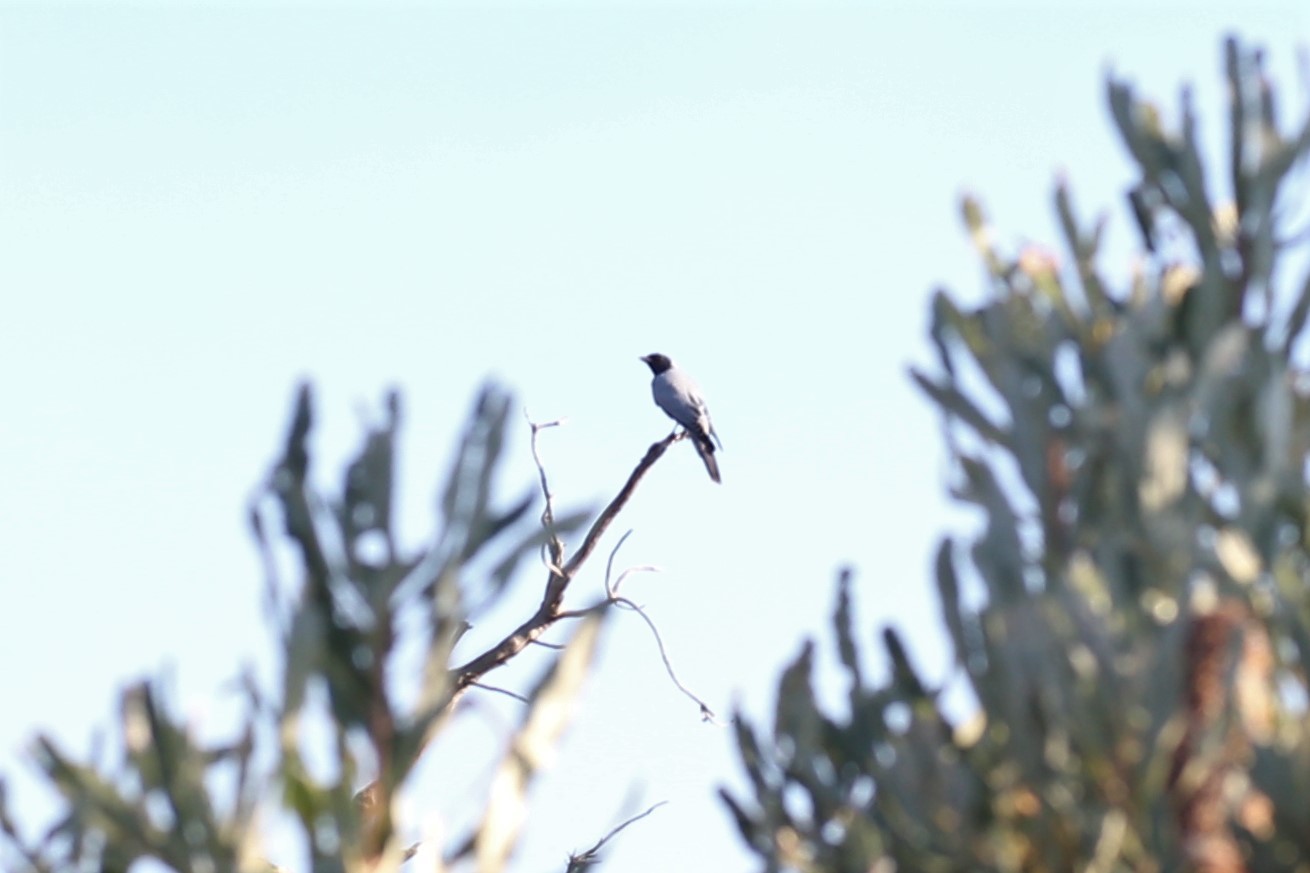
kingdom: Animalia
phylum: Chordata
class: Aves
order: Passeriformes
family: Campephagidae
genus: Coracina
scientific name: Coracina novaehollandiae
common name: Black-faced cuckooshrike
